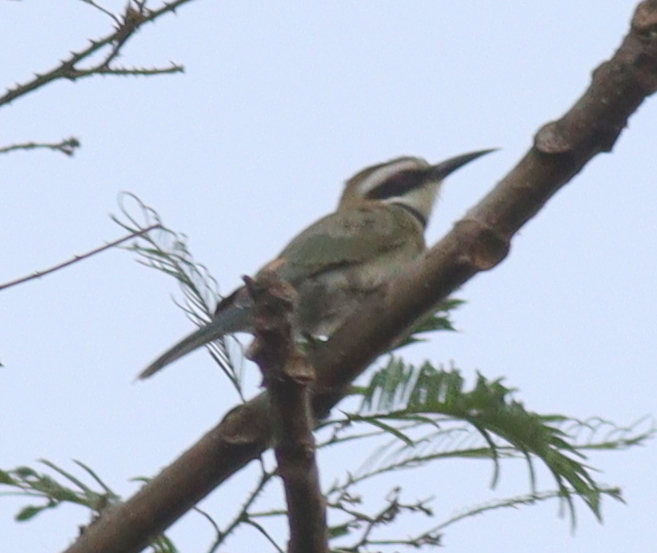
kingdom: Animalia
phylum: Chordata
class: Aves
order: Coraciiformes
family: Meropidae
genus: Merops
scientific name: Merops albicollis
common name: White-throated bee-eater
